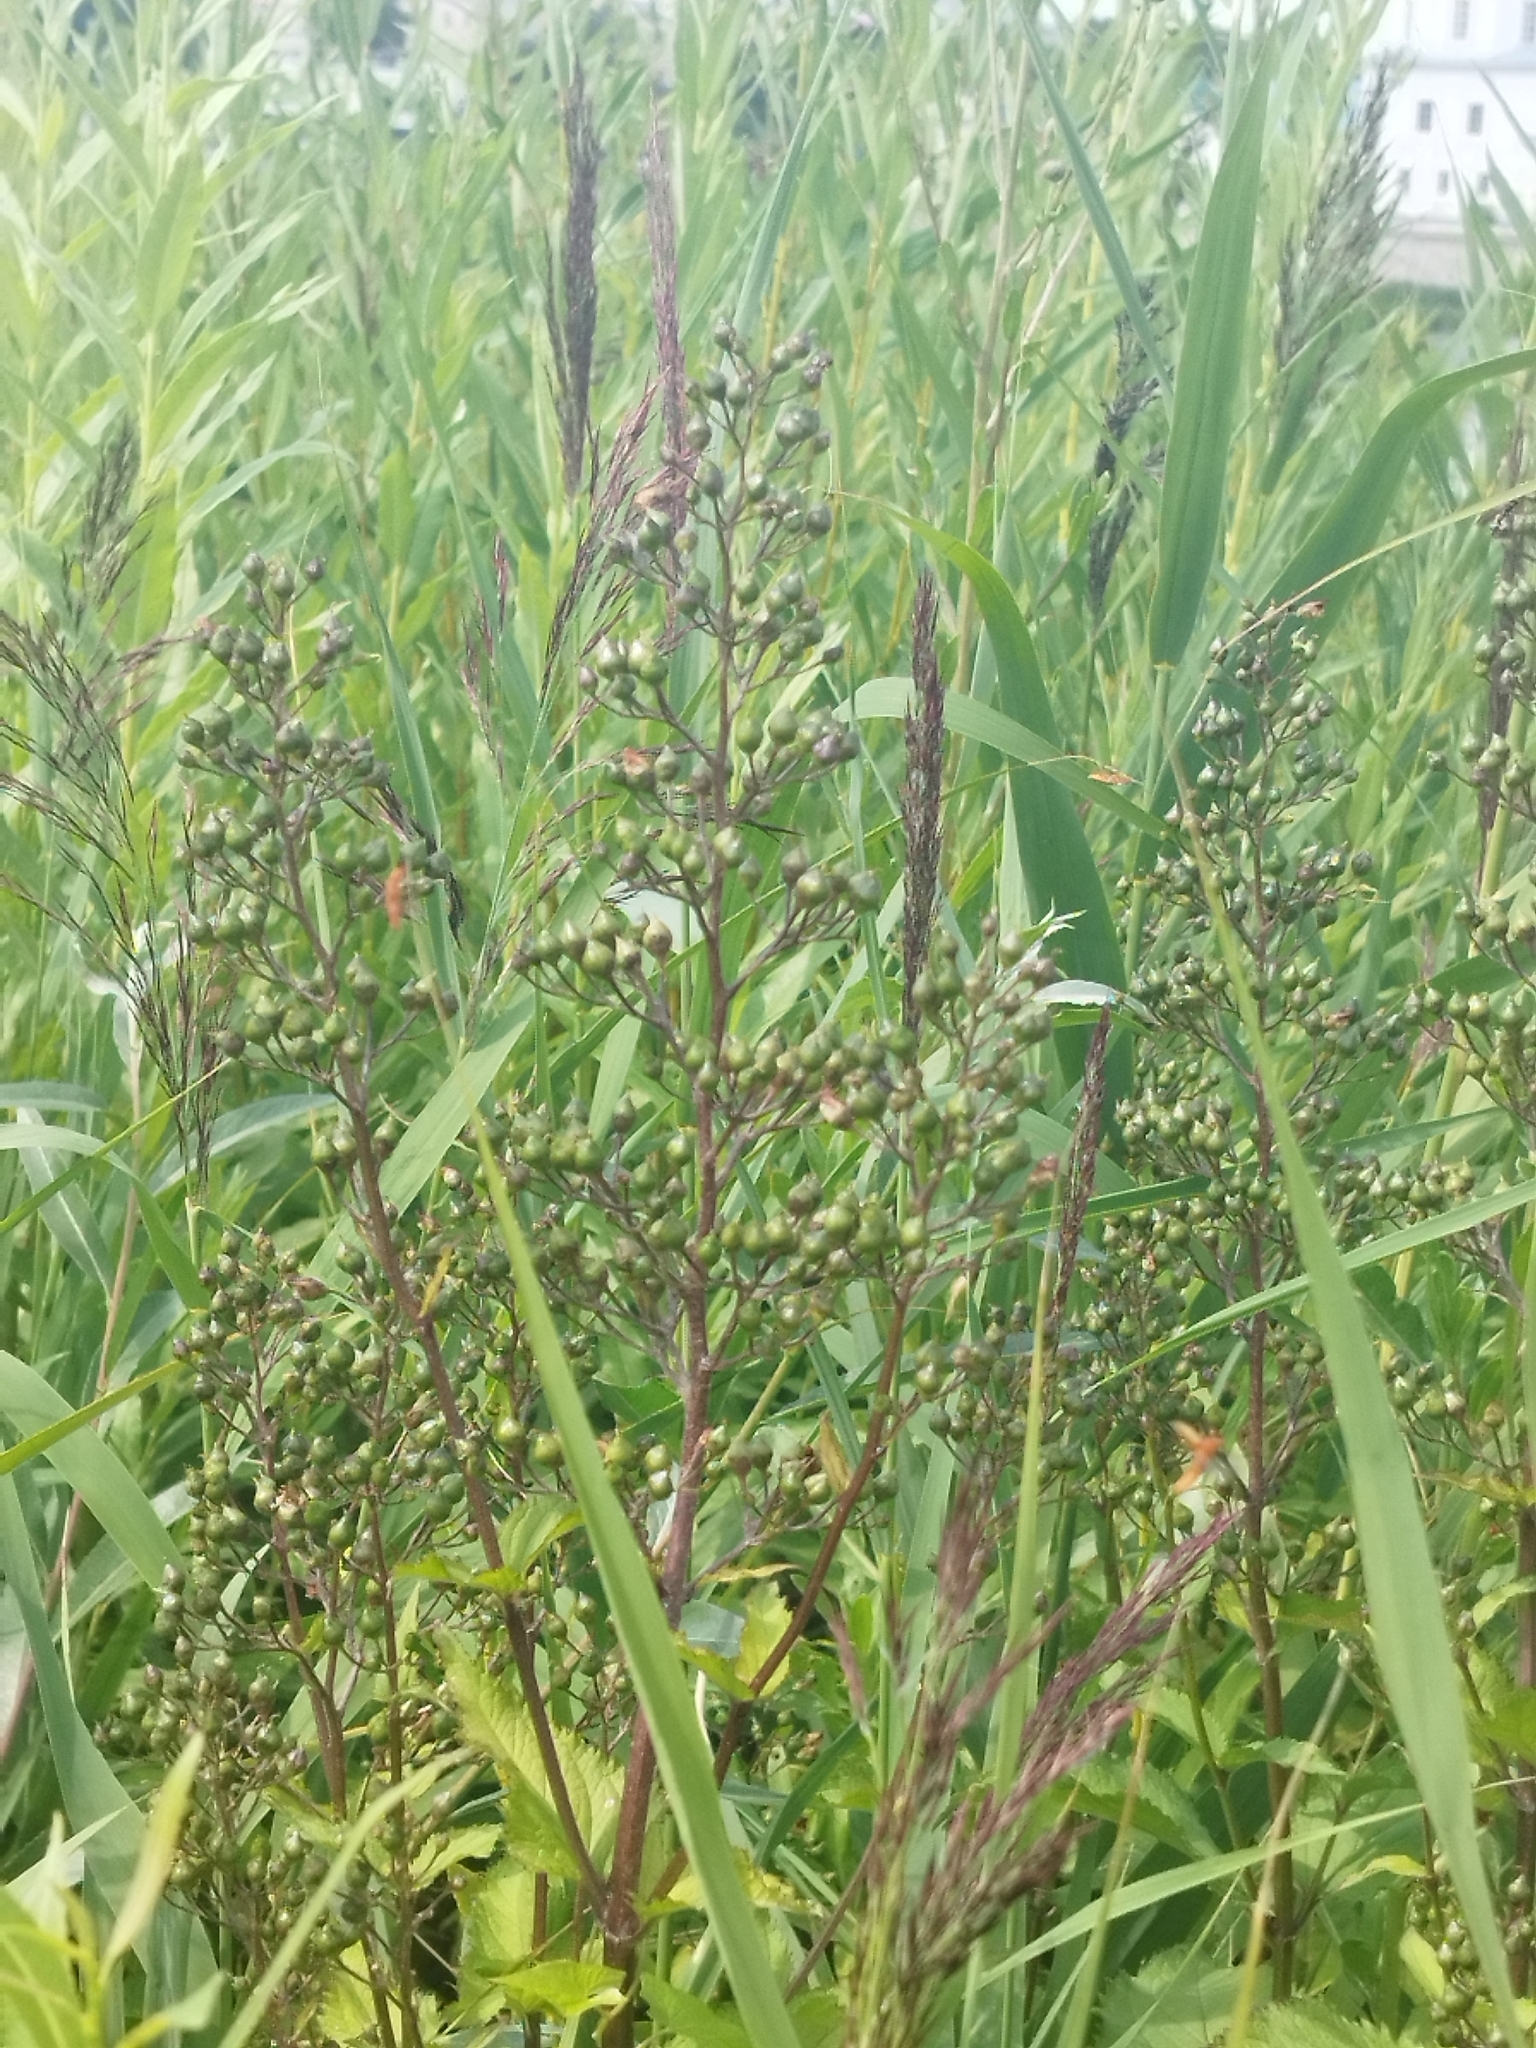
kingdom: Plantae
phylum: Tracheophyta
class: Magnoliopsida
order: Lamiales
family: Scrophulariaceae
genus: Scrophularia
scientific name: Scrophularia nodosa
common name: Common figwort
